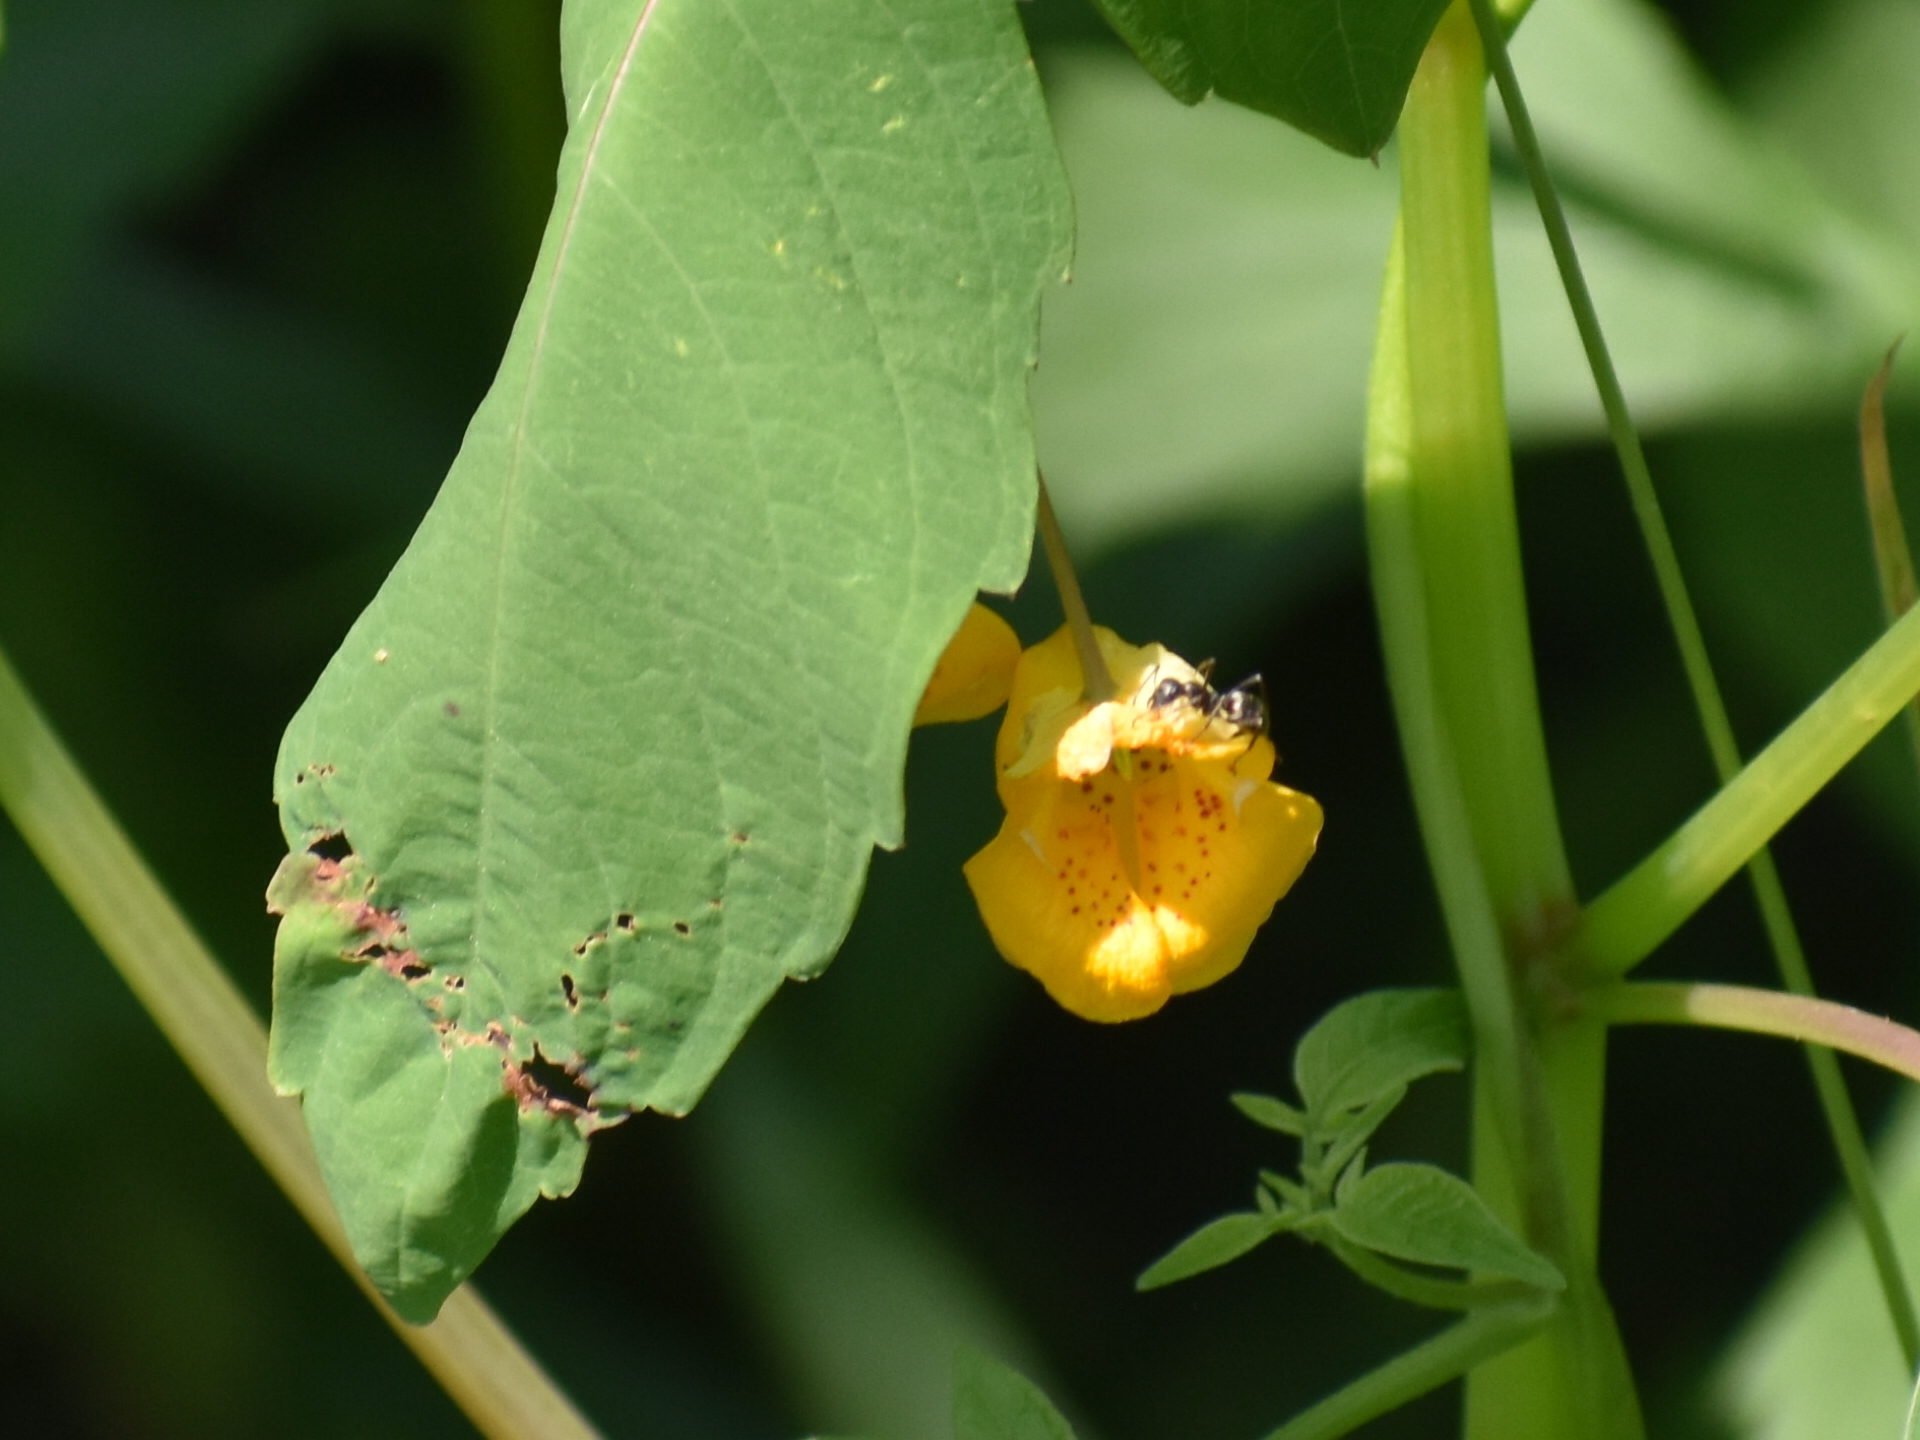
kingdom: Plantae
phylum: Tracheophyta
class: Magnoliopsida
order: Ericales
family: Balsaminaceae
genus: Impatiens
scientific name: Impatiens capensis
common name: Orange balsam
